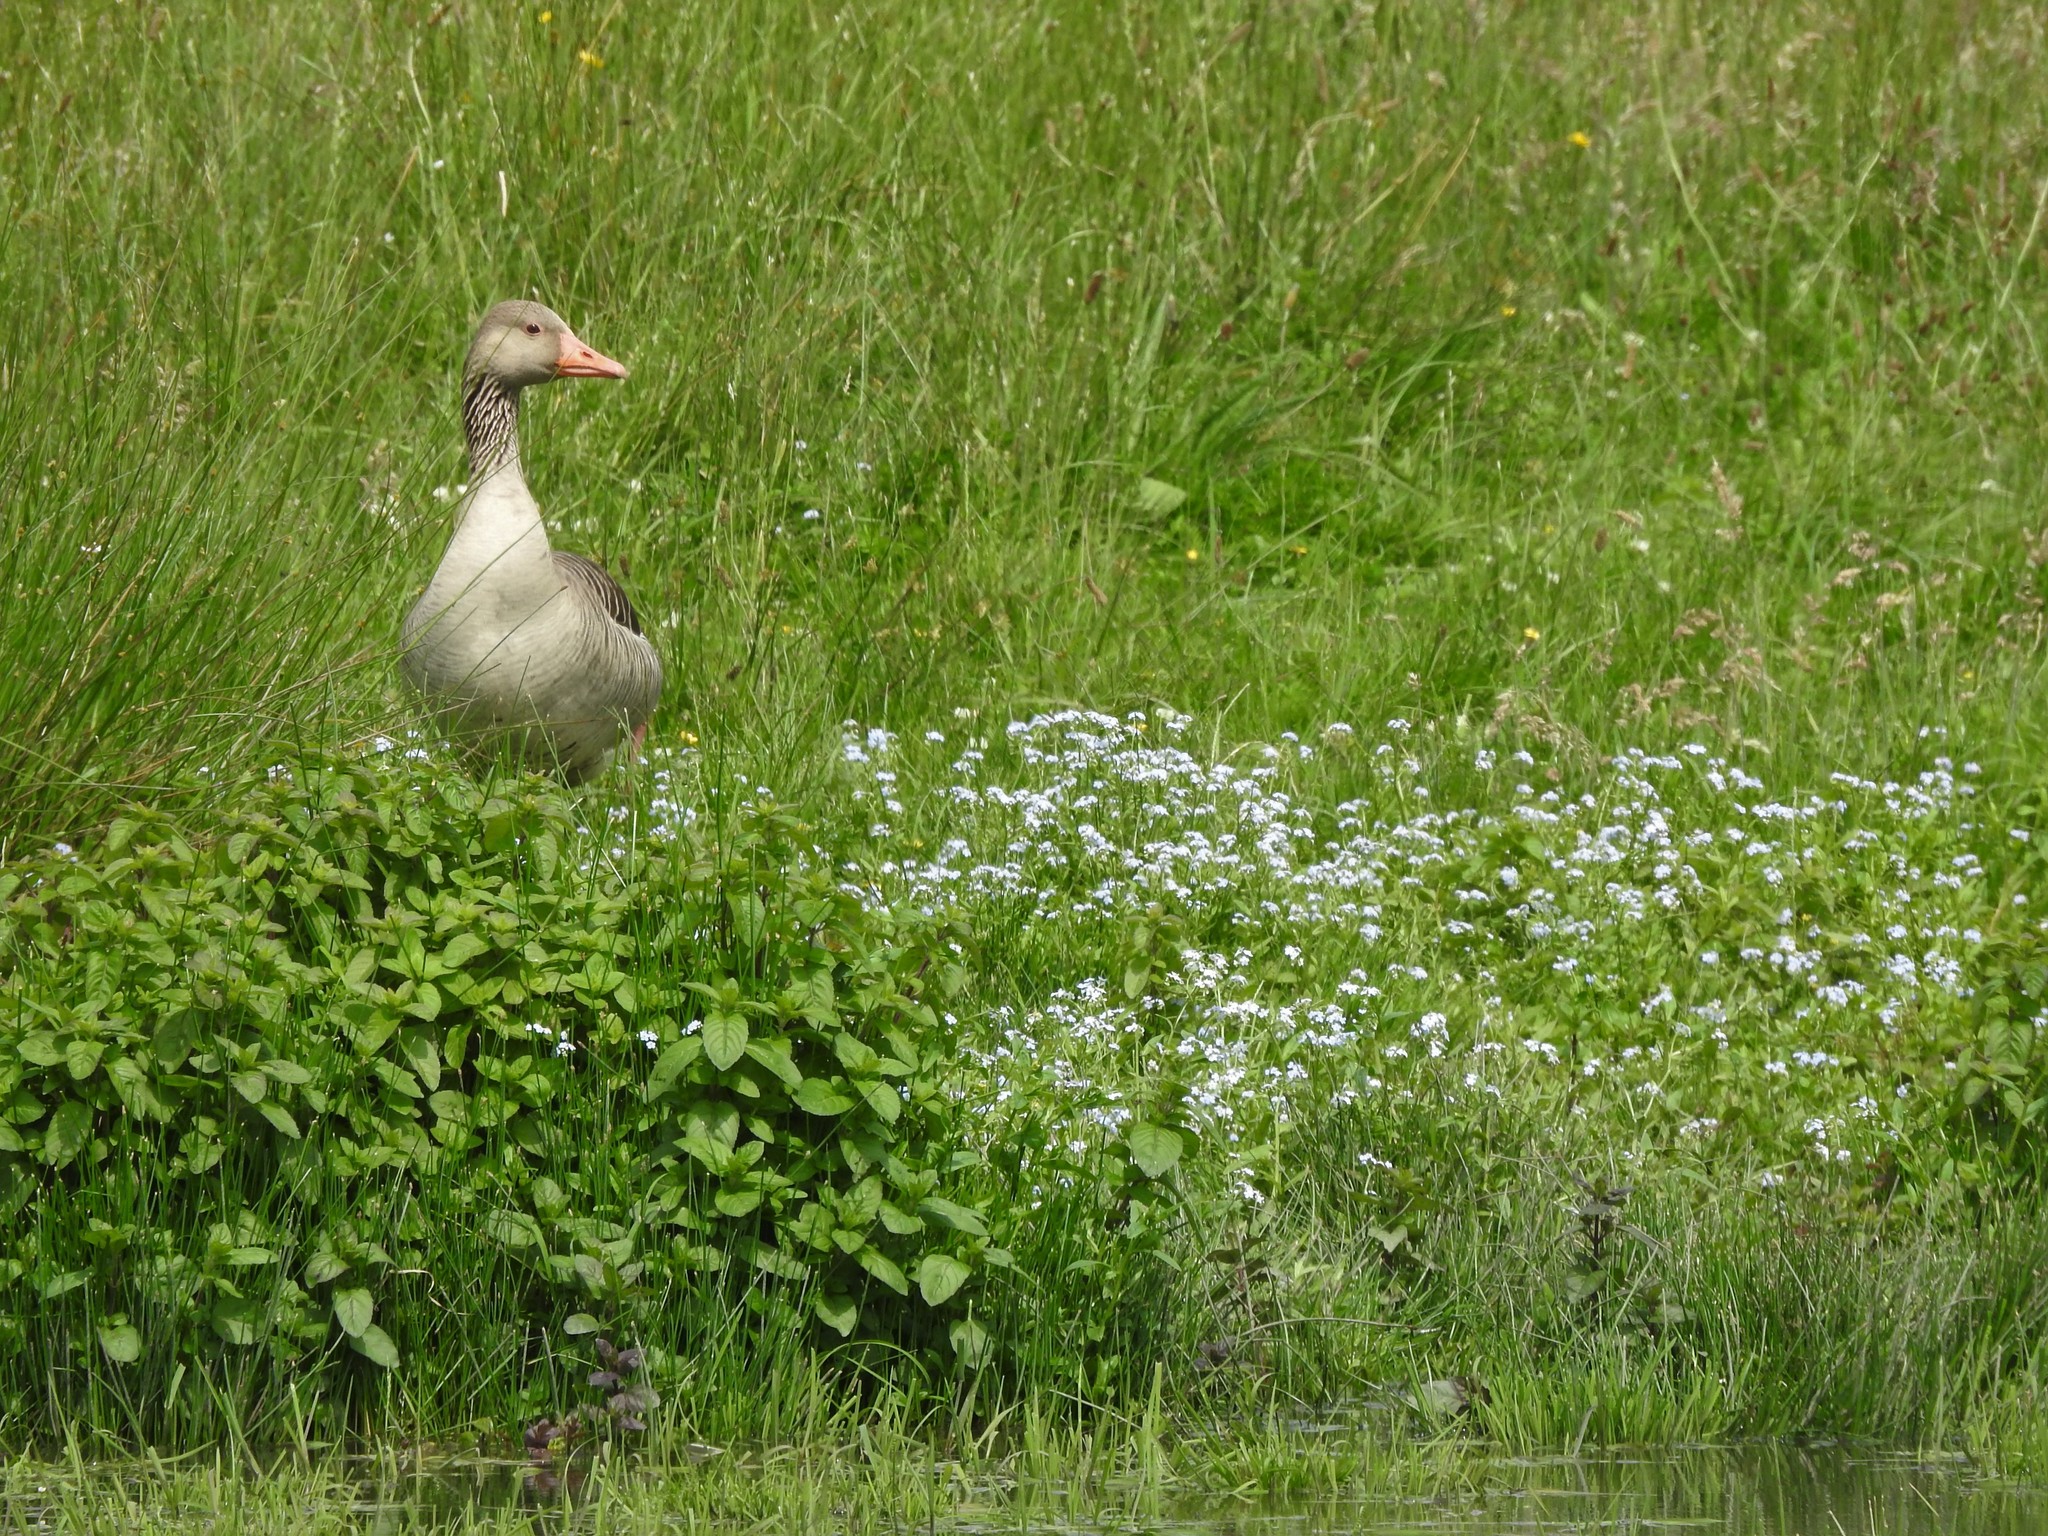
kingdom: Animalia
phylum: Chordata
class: Aves
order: Anseriformes
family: Anatidae
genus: Anser
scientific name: Anser anser
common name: Greylag goose
